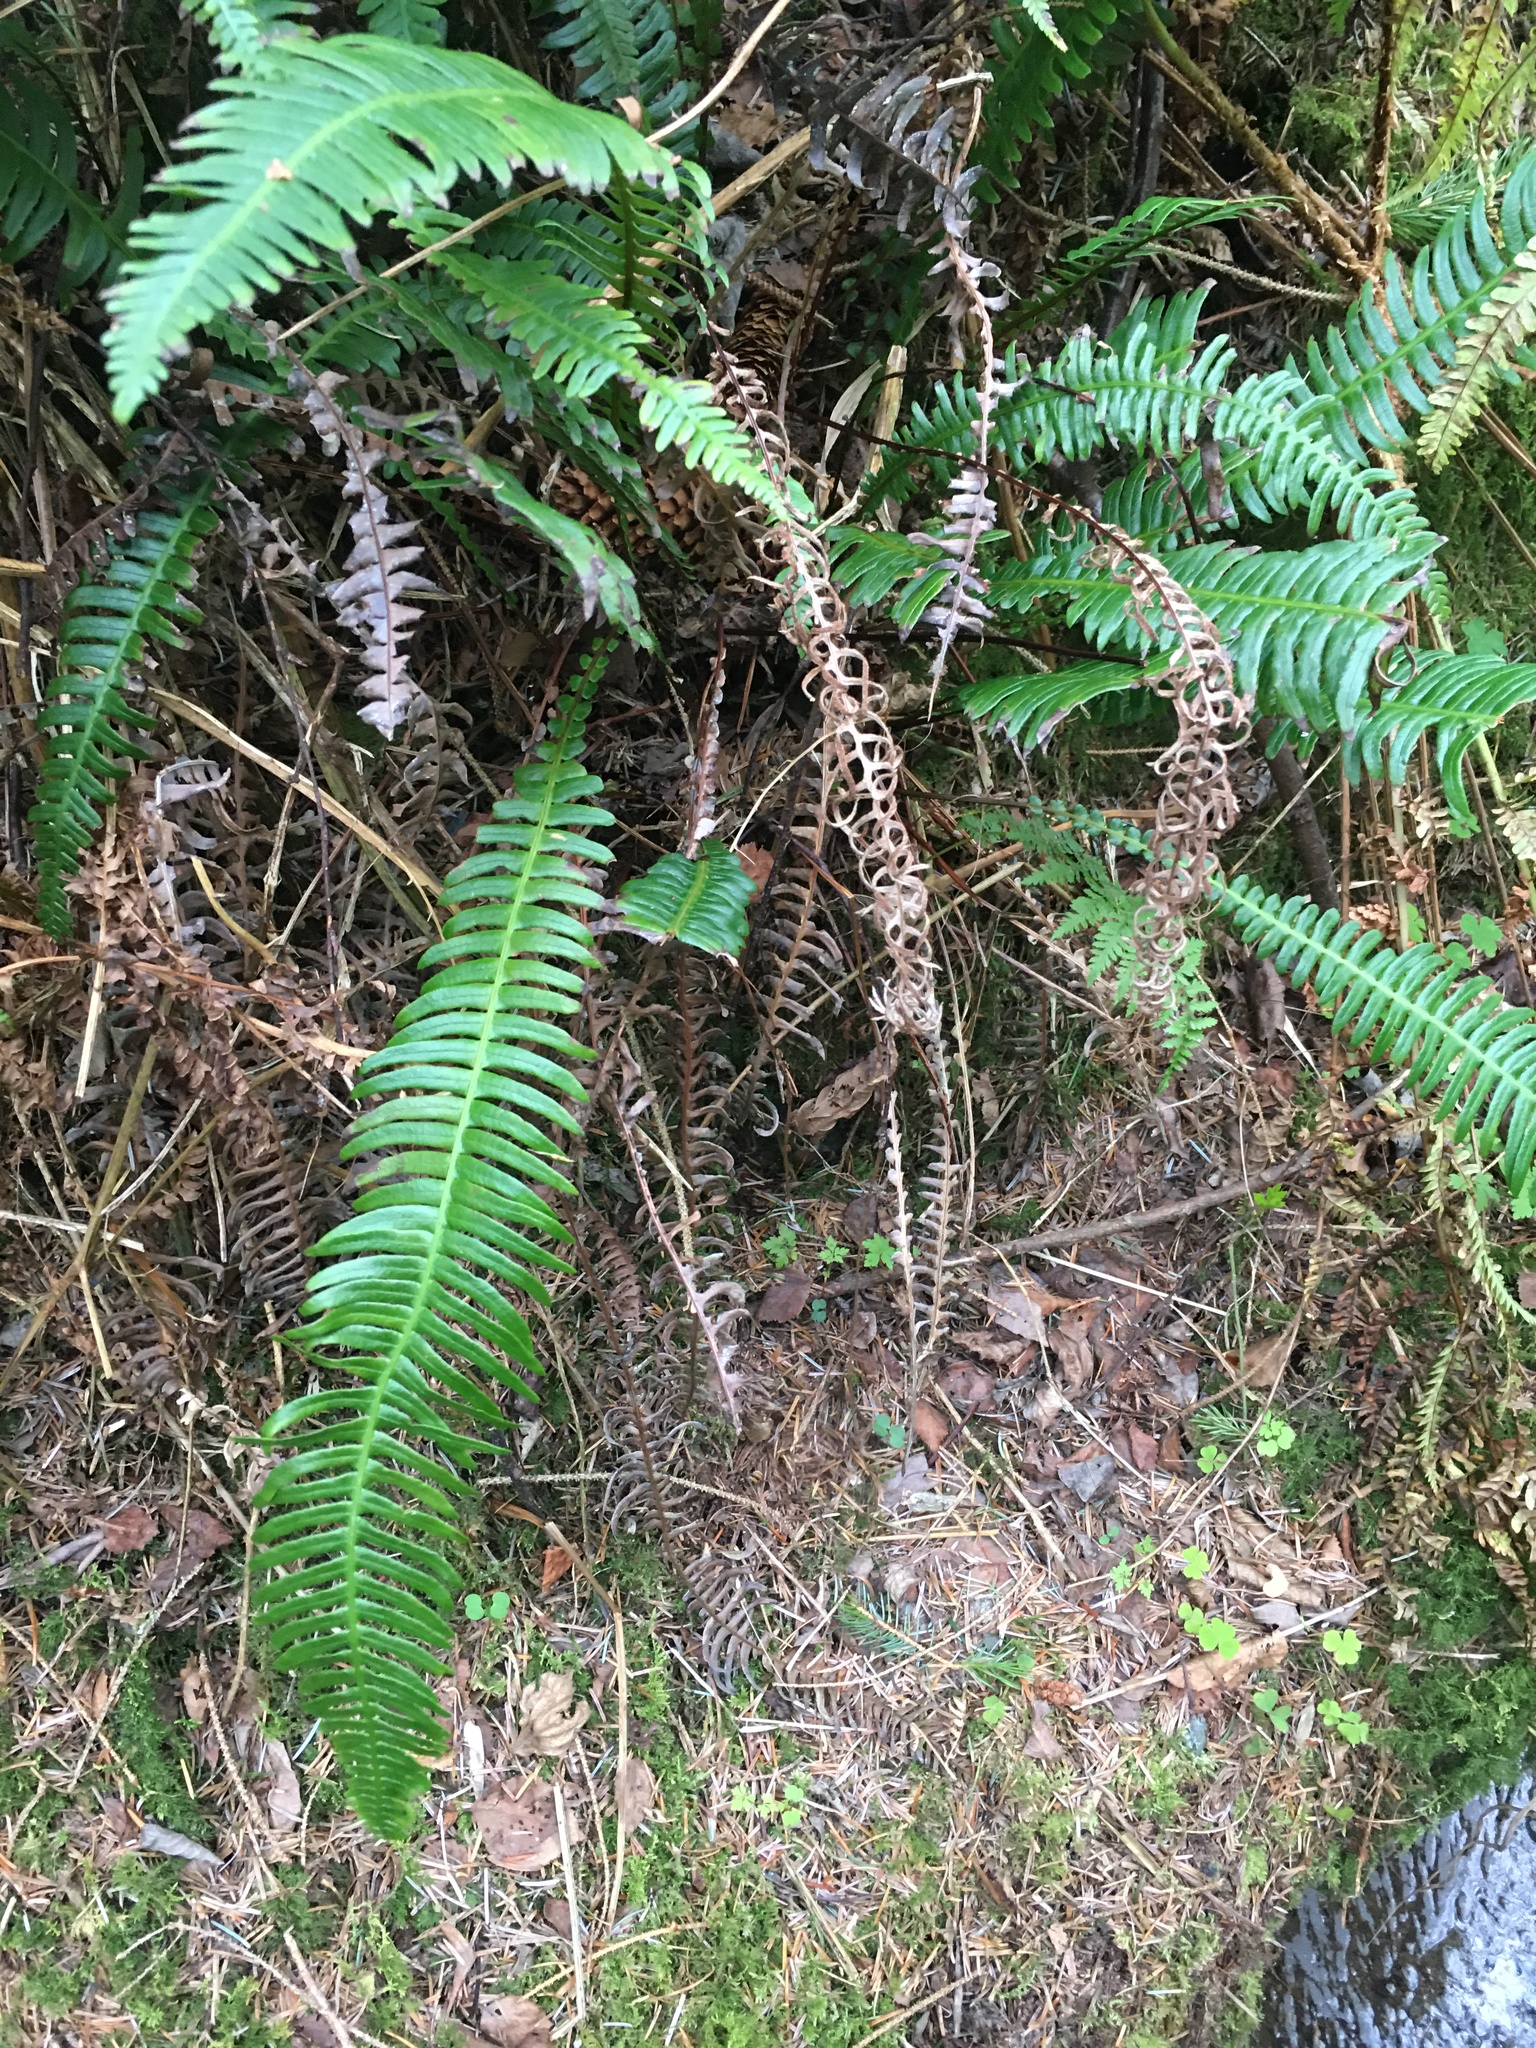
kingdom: Plantae
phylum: Tracheophyta
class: Polypodiopsida
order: Polypodiales
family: Blechnaceae
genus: Struthiopteris
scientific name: Struthiopteris spicant
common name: Deer fern
